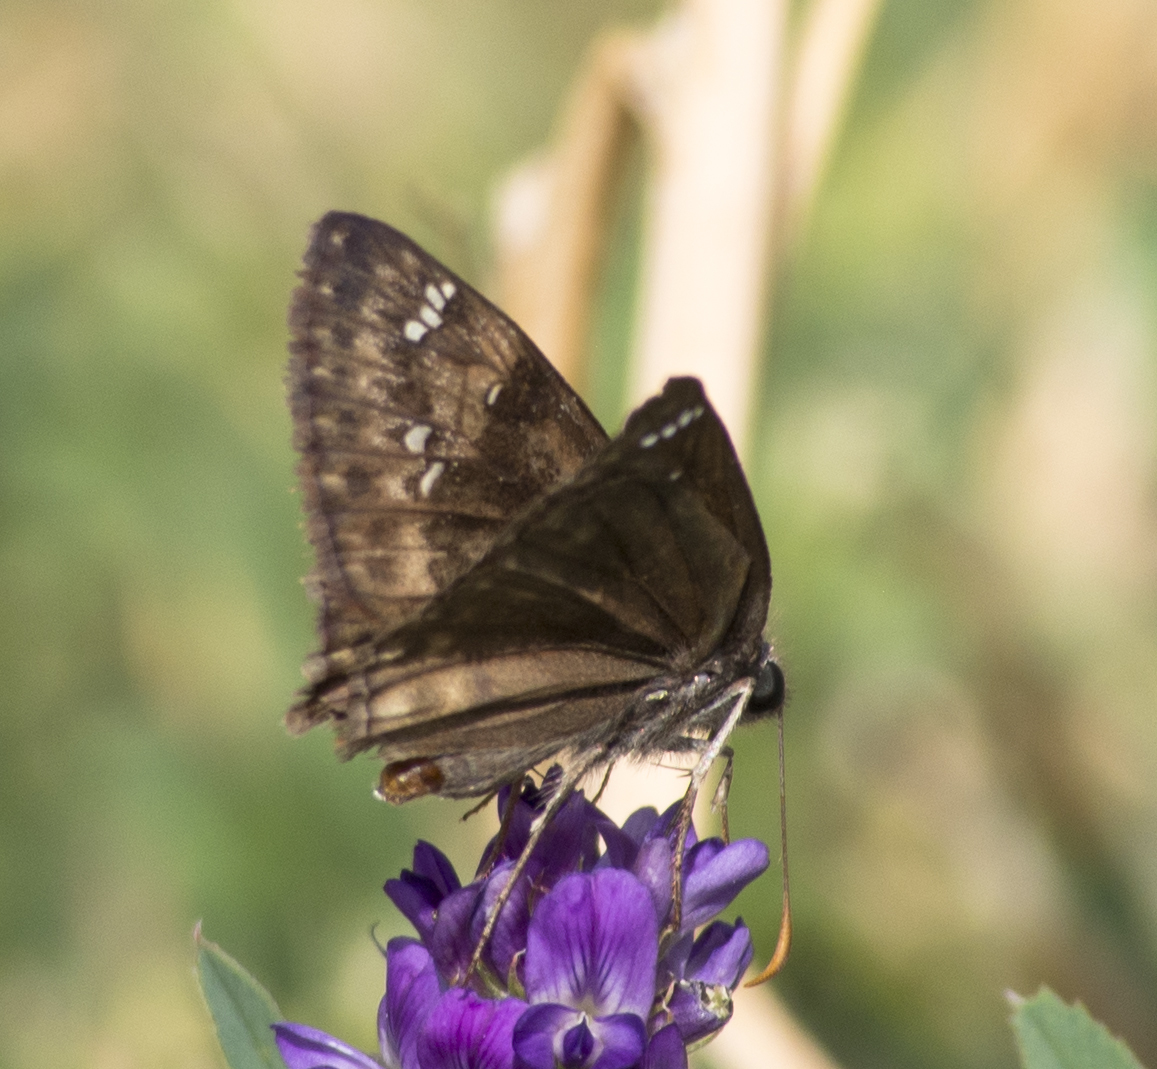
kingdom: Animalia
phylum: Arthropoda
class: Insecta
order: Lepidoptera
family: Hesperiidae
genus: Erynnis
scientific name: Erynnis horatius
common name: Horace's duskywing
